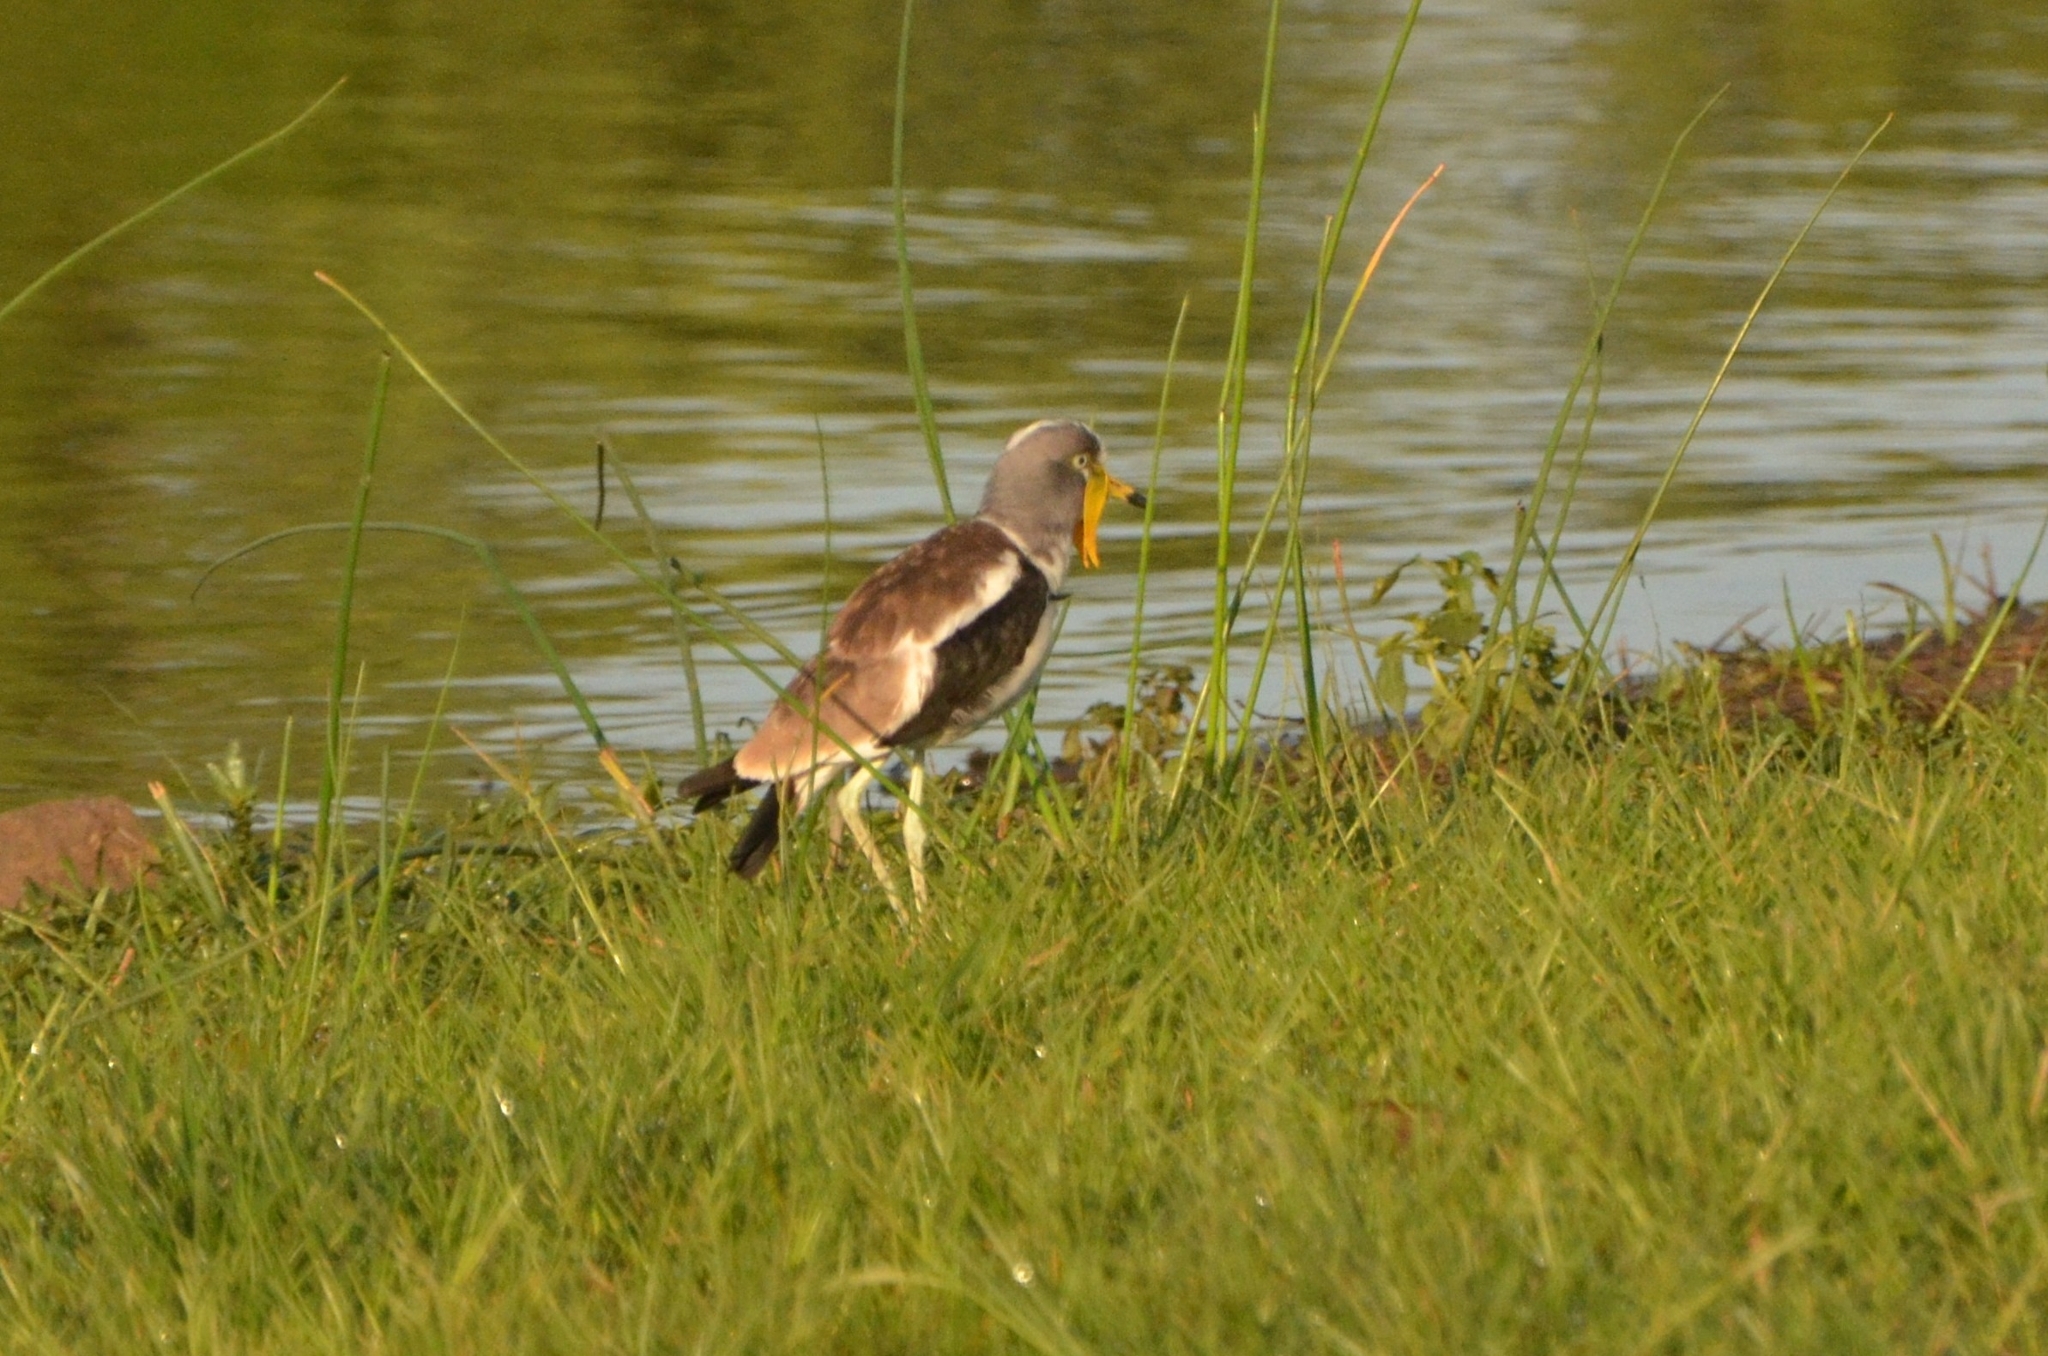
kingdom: Animalia
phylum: Chordata
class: Aves
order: Charadriiformes
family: Charadriidae
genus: Vanellus
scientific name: Vanellus albiceps
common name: White-crowned lapwing
